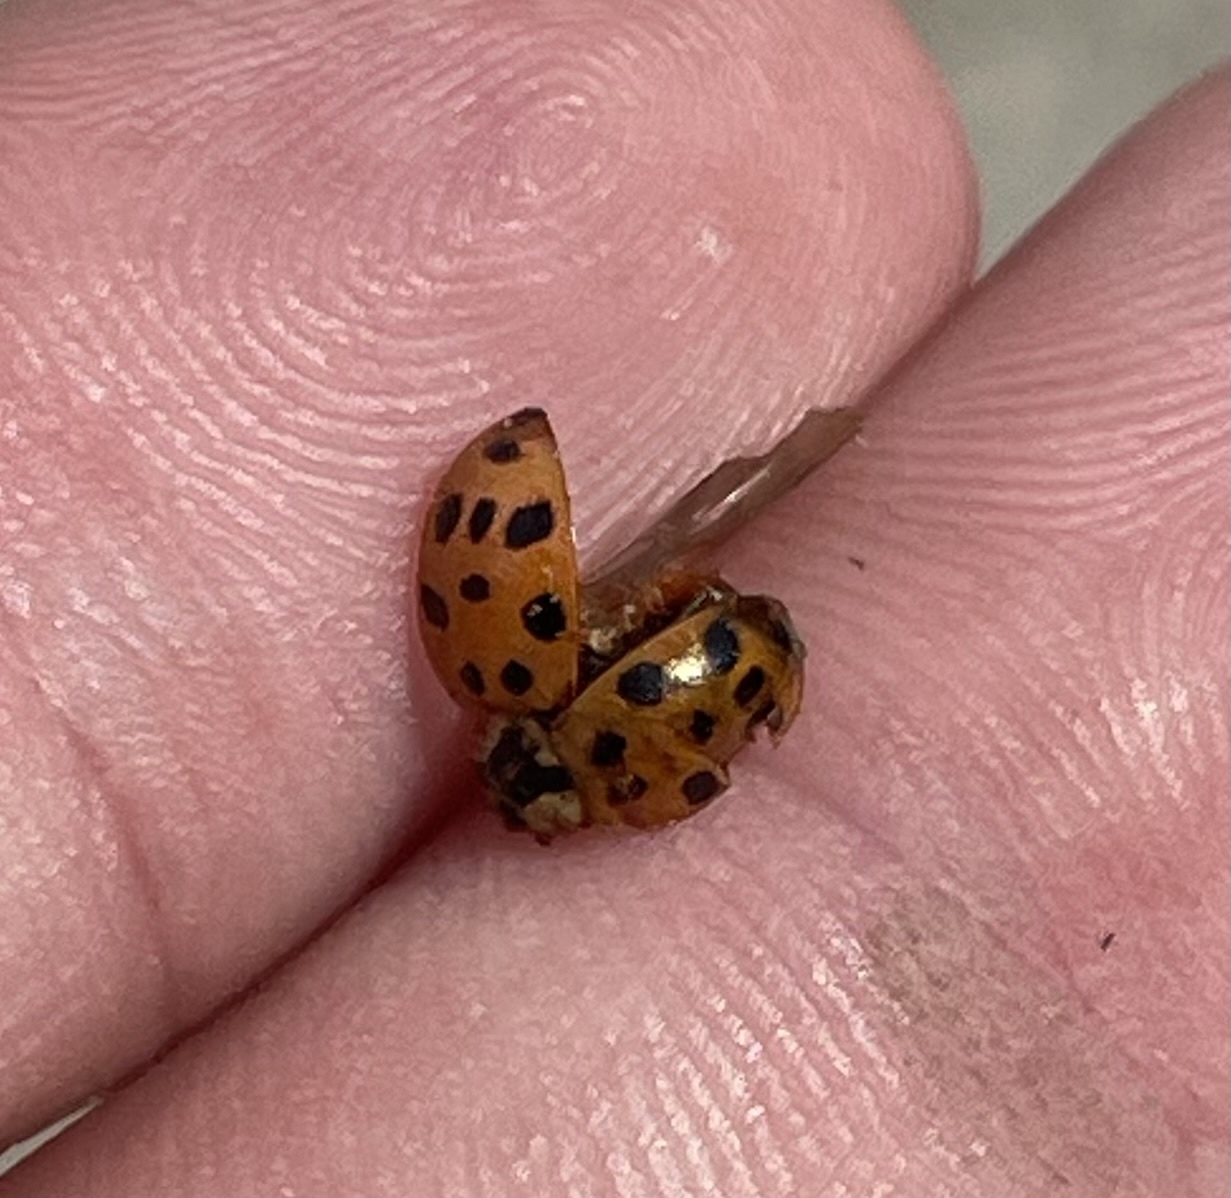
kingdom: Animalia
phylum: Arthropoda
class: Insecta
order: Coleoptera
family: Coccinellidae
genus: Harmonia
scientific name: Harmonia axyridis
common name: Harlequin ladybird
